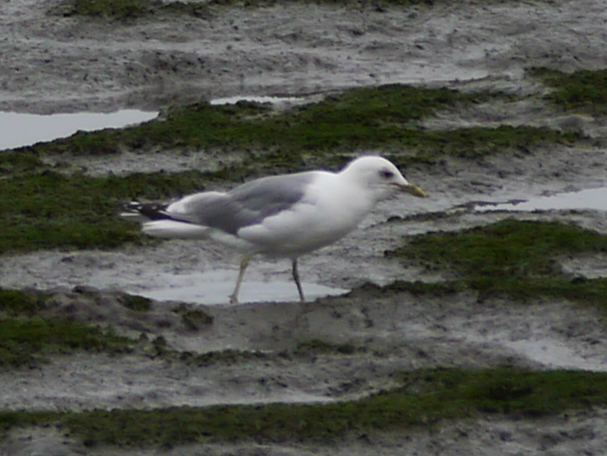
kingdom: Animalia
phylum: Chordata
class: Aves
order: Charadriiformes
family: Laridae
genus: Larus
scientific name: Larus brachyrhynchus
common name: Short-billed gull
